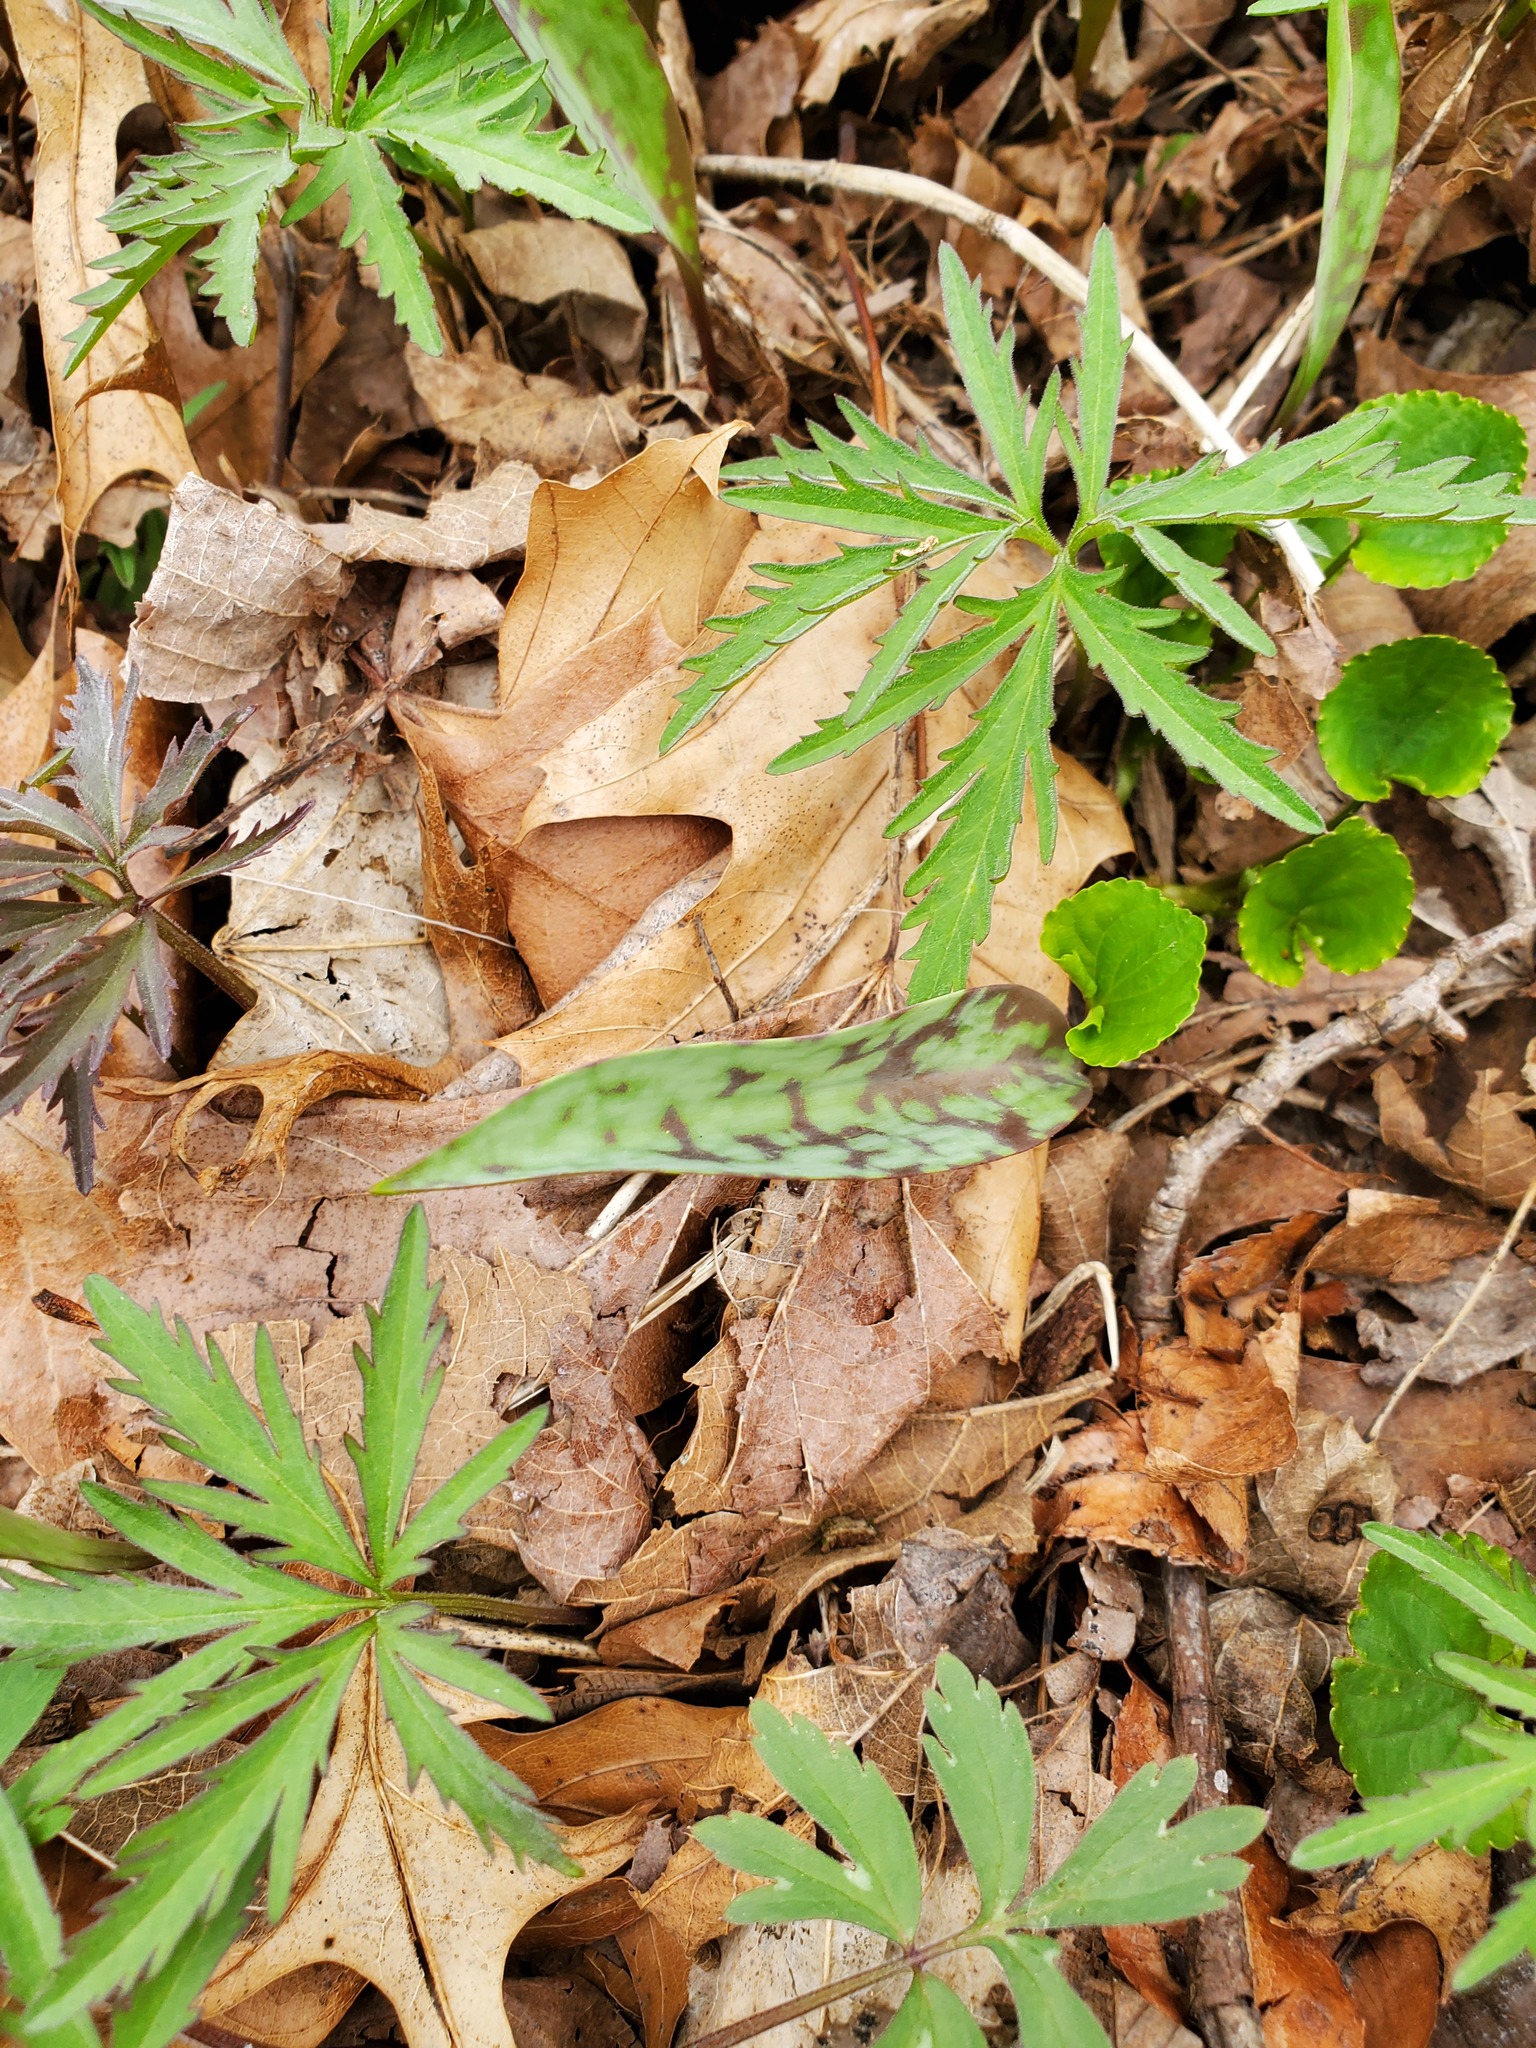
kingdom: Plantae
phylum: Tracheophyta
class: Liliopsida
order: Liliales
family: Liliaceae
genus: Erythronium
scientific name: Erythronium albidum
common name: White trout-lily
